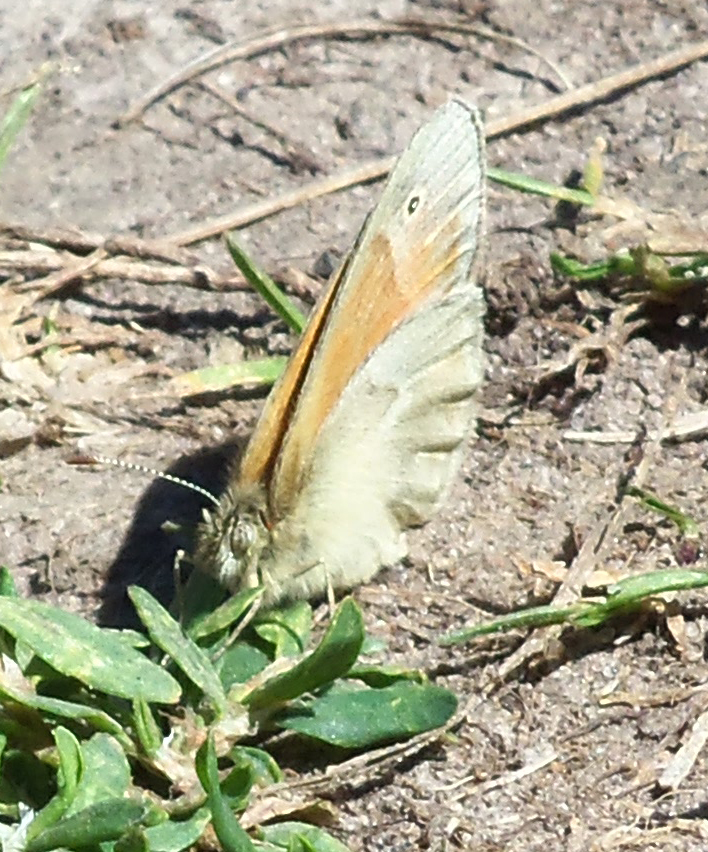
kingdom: Animalia
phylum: Arthropoda
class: Insecta
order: Lepidoptera
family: Nymphalidae
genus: Coenonympha
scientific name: Coenonympha california
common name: Common ringlet
